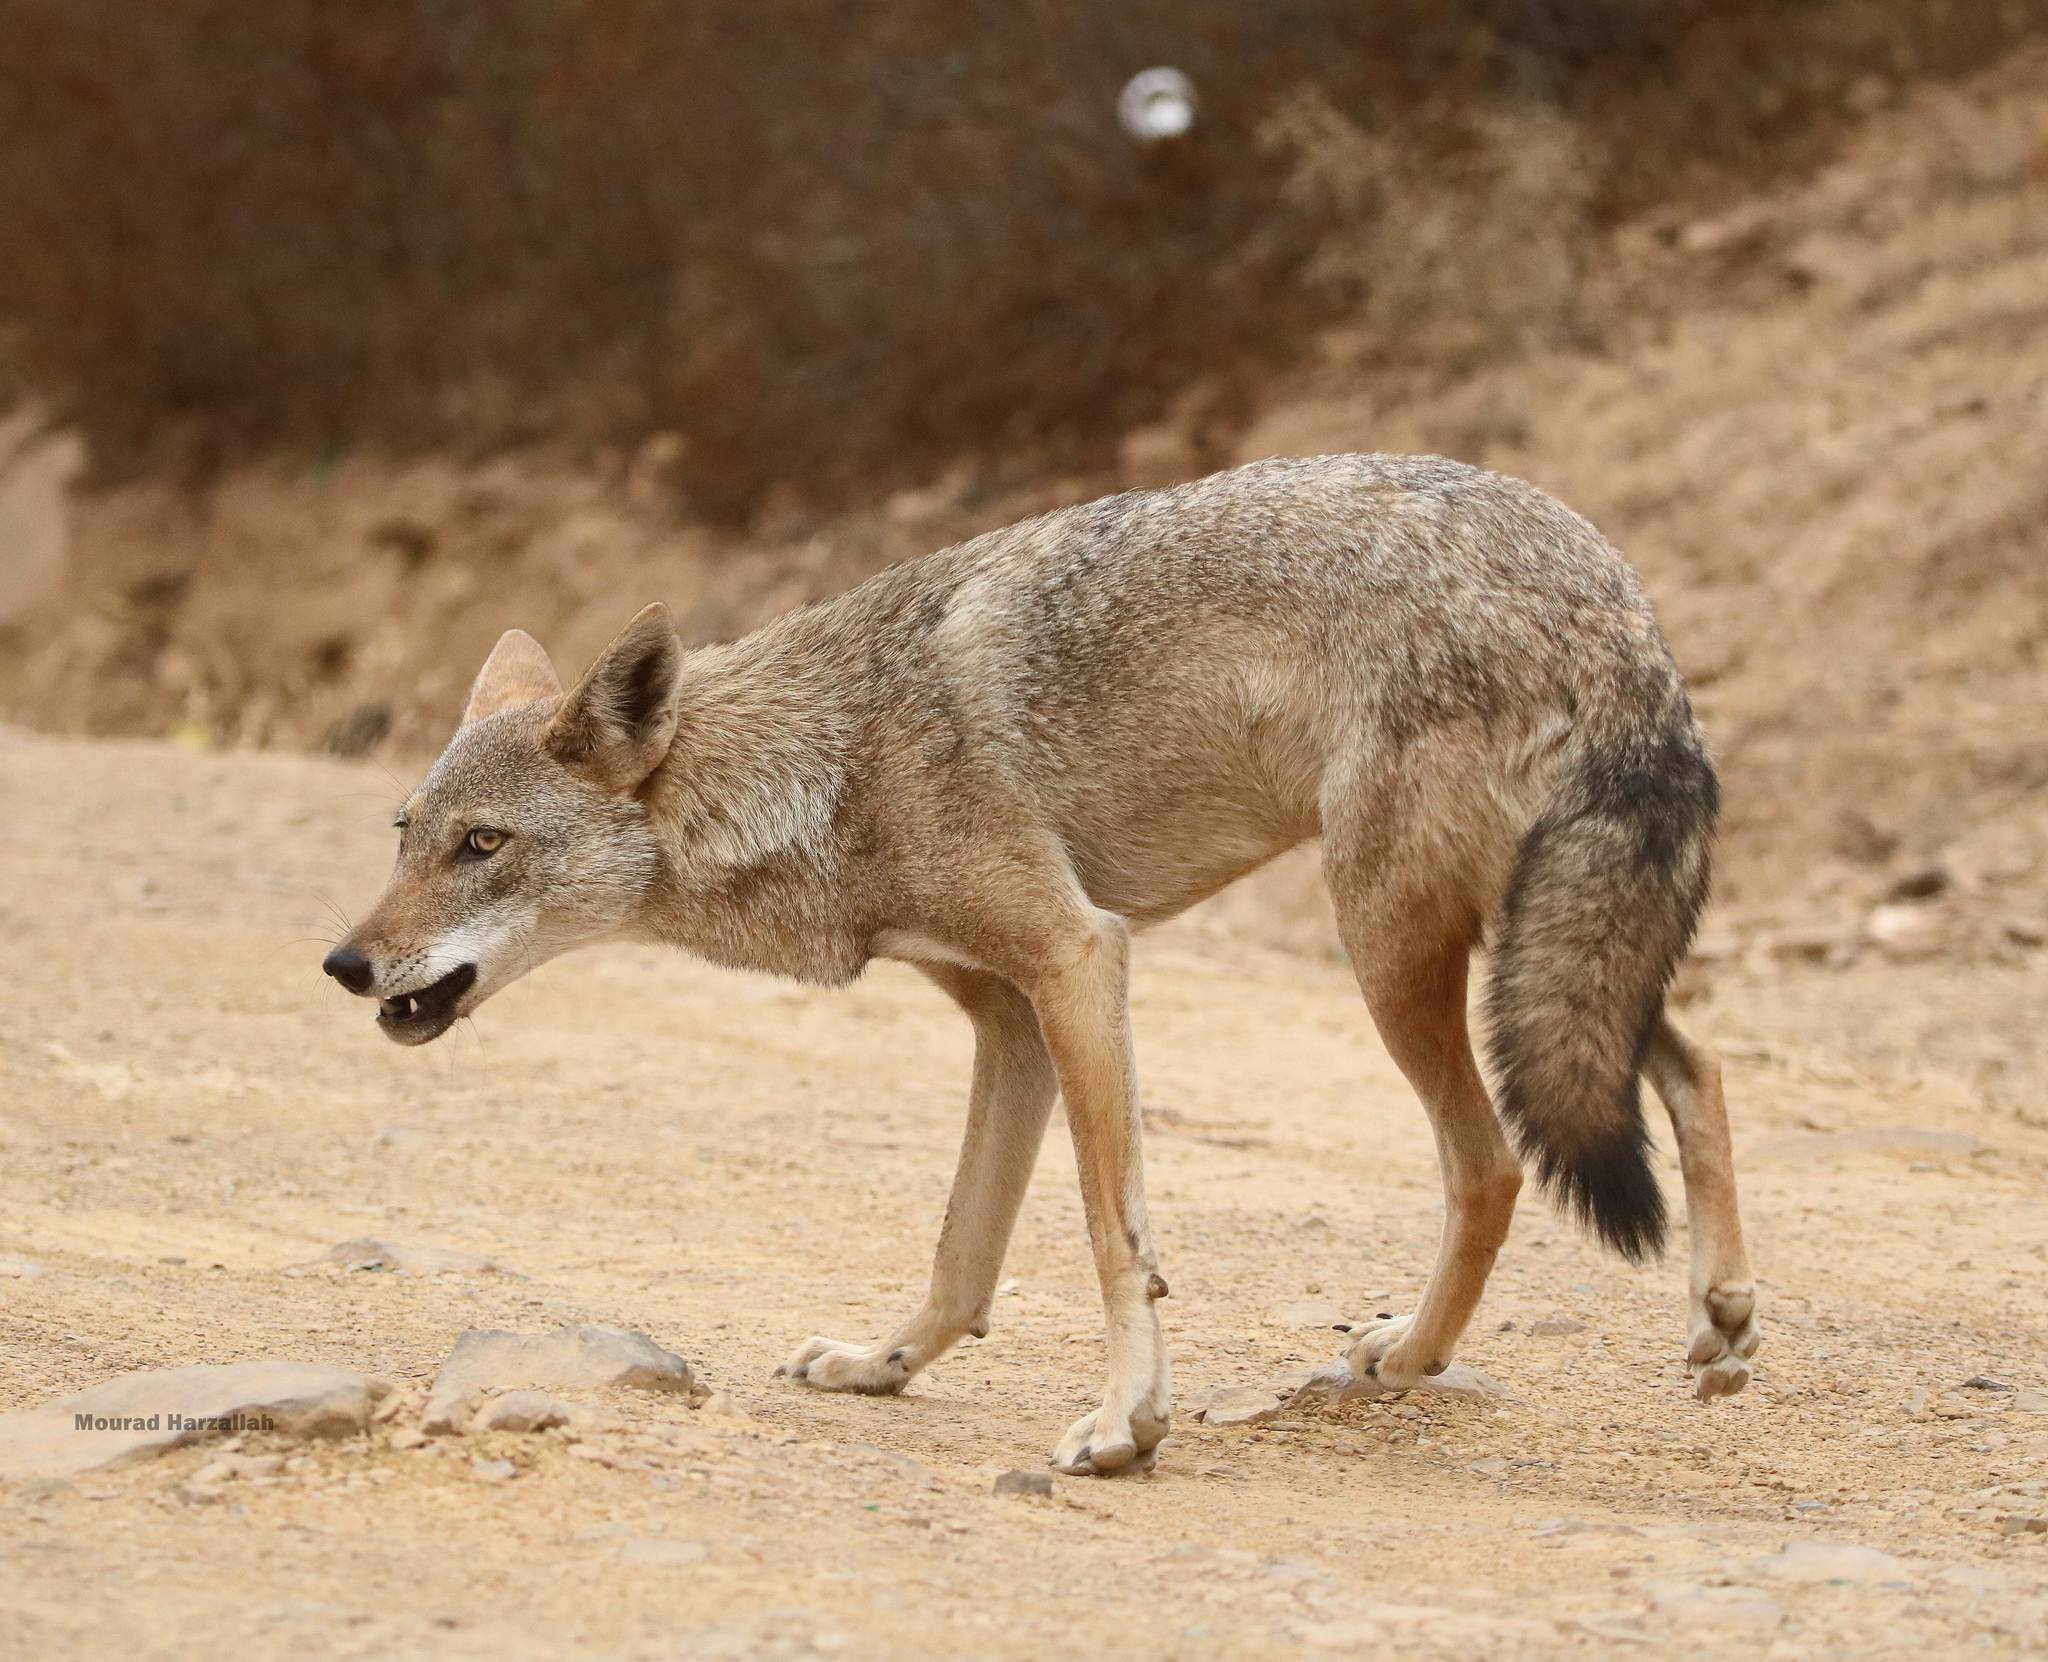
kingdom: Animalia
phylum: Chordata
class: Mammalia
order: Carnivora
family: Canidae
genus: Canis
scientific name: Canis lupaster
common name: African golden wolf
